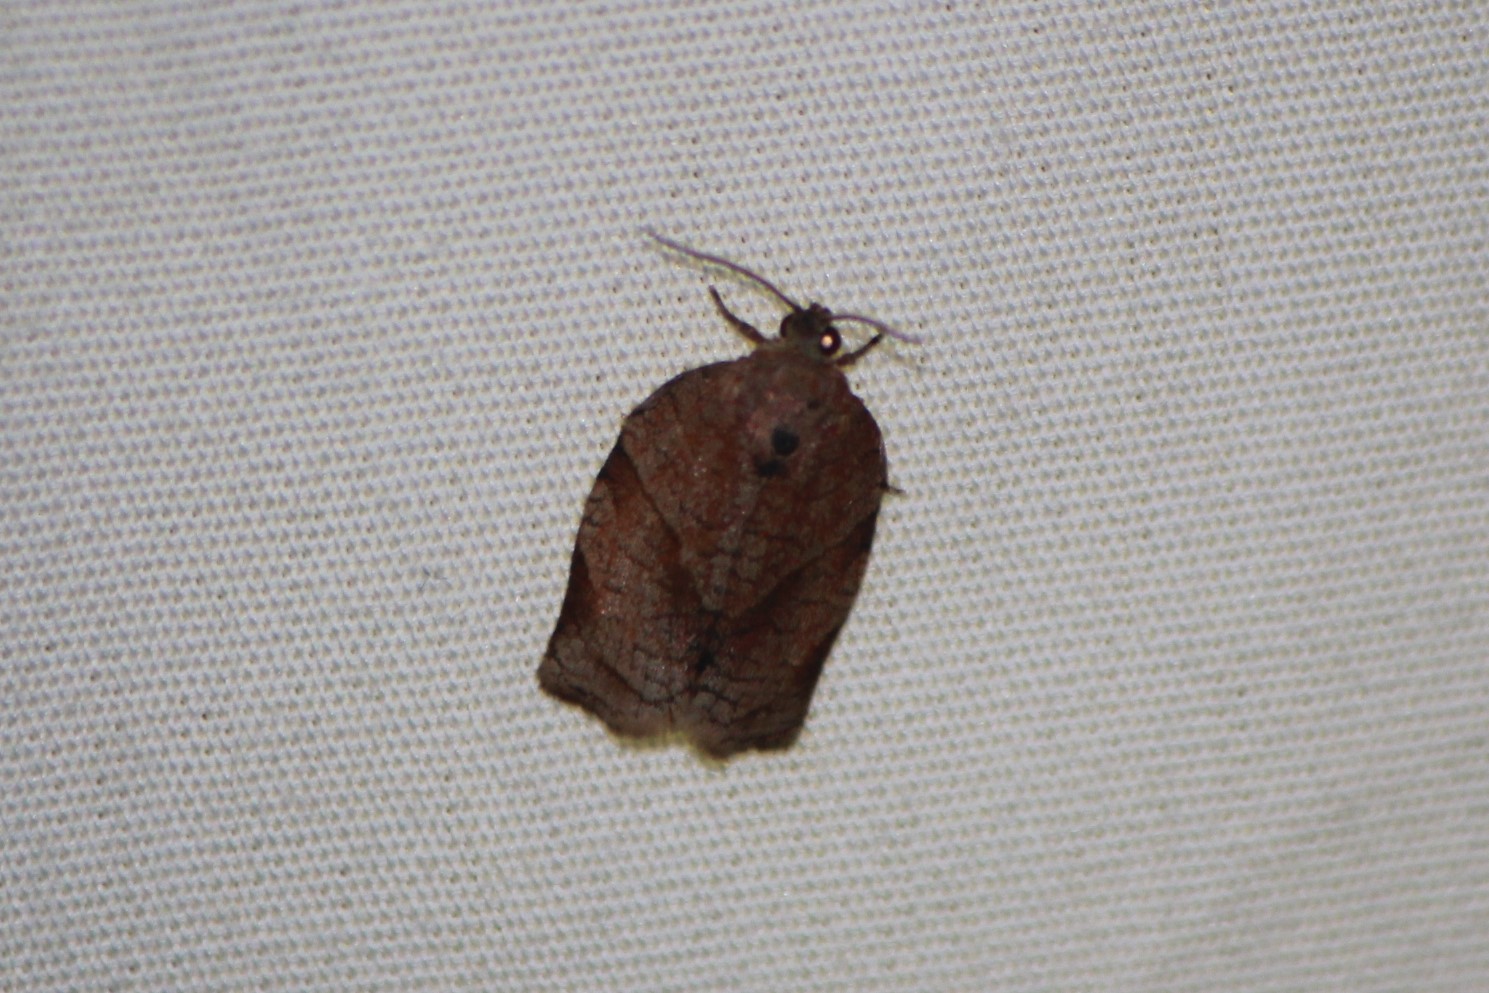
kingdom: Animalia
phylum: Arthropoda
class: Insecta
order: Lepidoptera
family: Tortricidae
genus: Choristoneura
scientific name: Choristoneura rosaceana
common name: Oblique-banded leafroller moth
